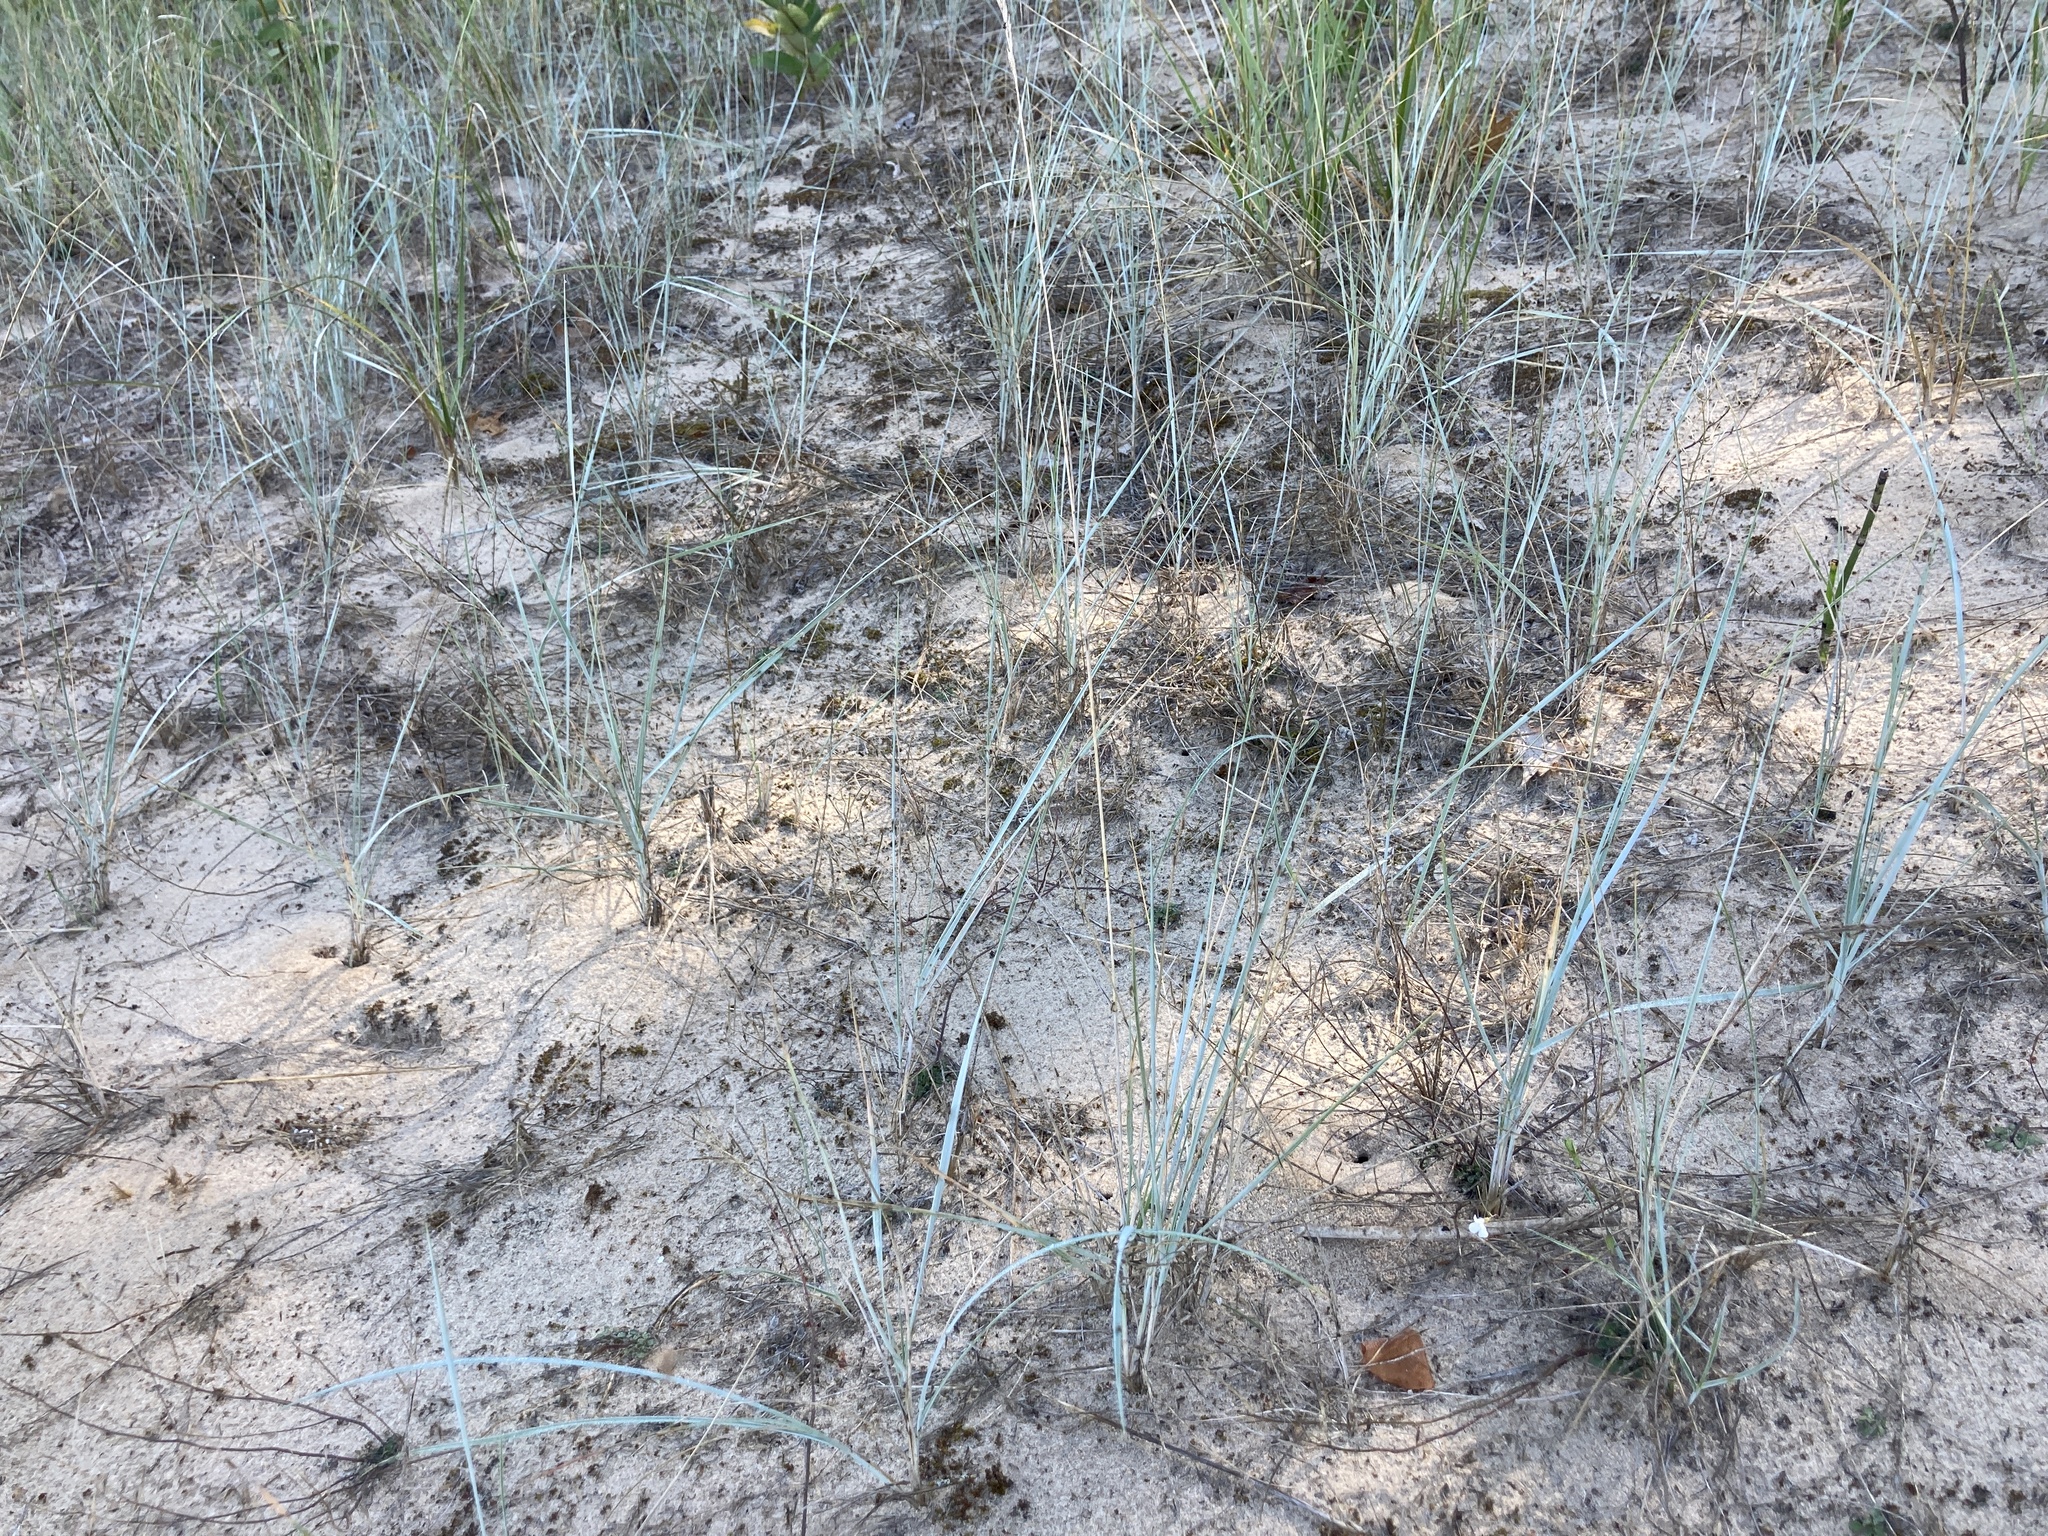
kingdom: Plantae
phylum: Tracheophyta
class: Liliopsida
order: Poales
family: Poaceae
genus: Elymus
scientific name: Elymus lanceolatus
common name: Thick-spike wheatgrass
